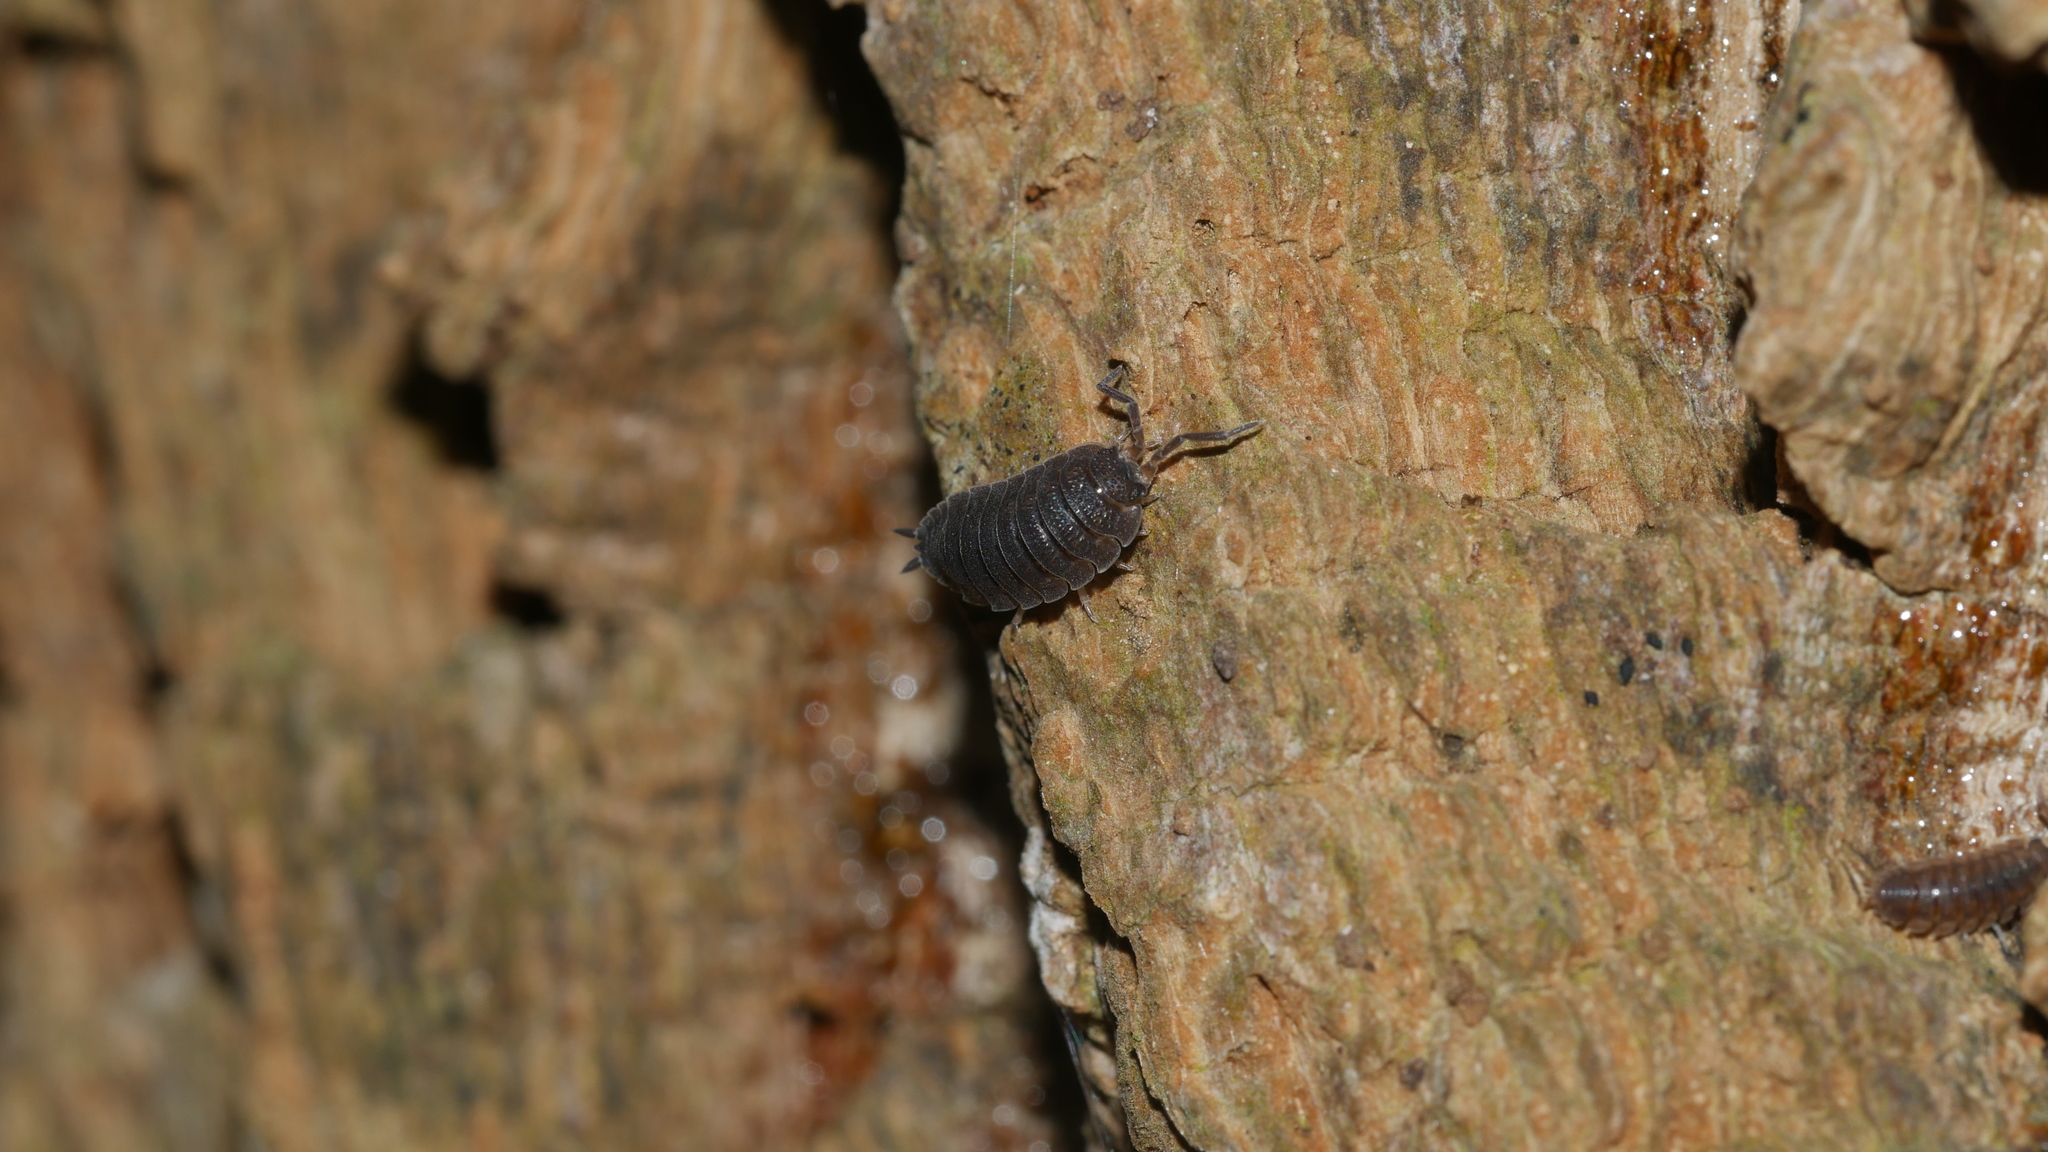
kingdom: Animalia
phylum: Arthropoda
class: Malacostraca
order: Isopoda
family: Porcellionidae
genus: Porcellio
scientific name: Porcellio scaber
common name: Common rough woodlouse
